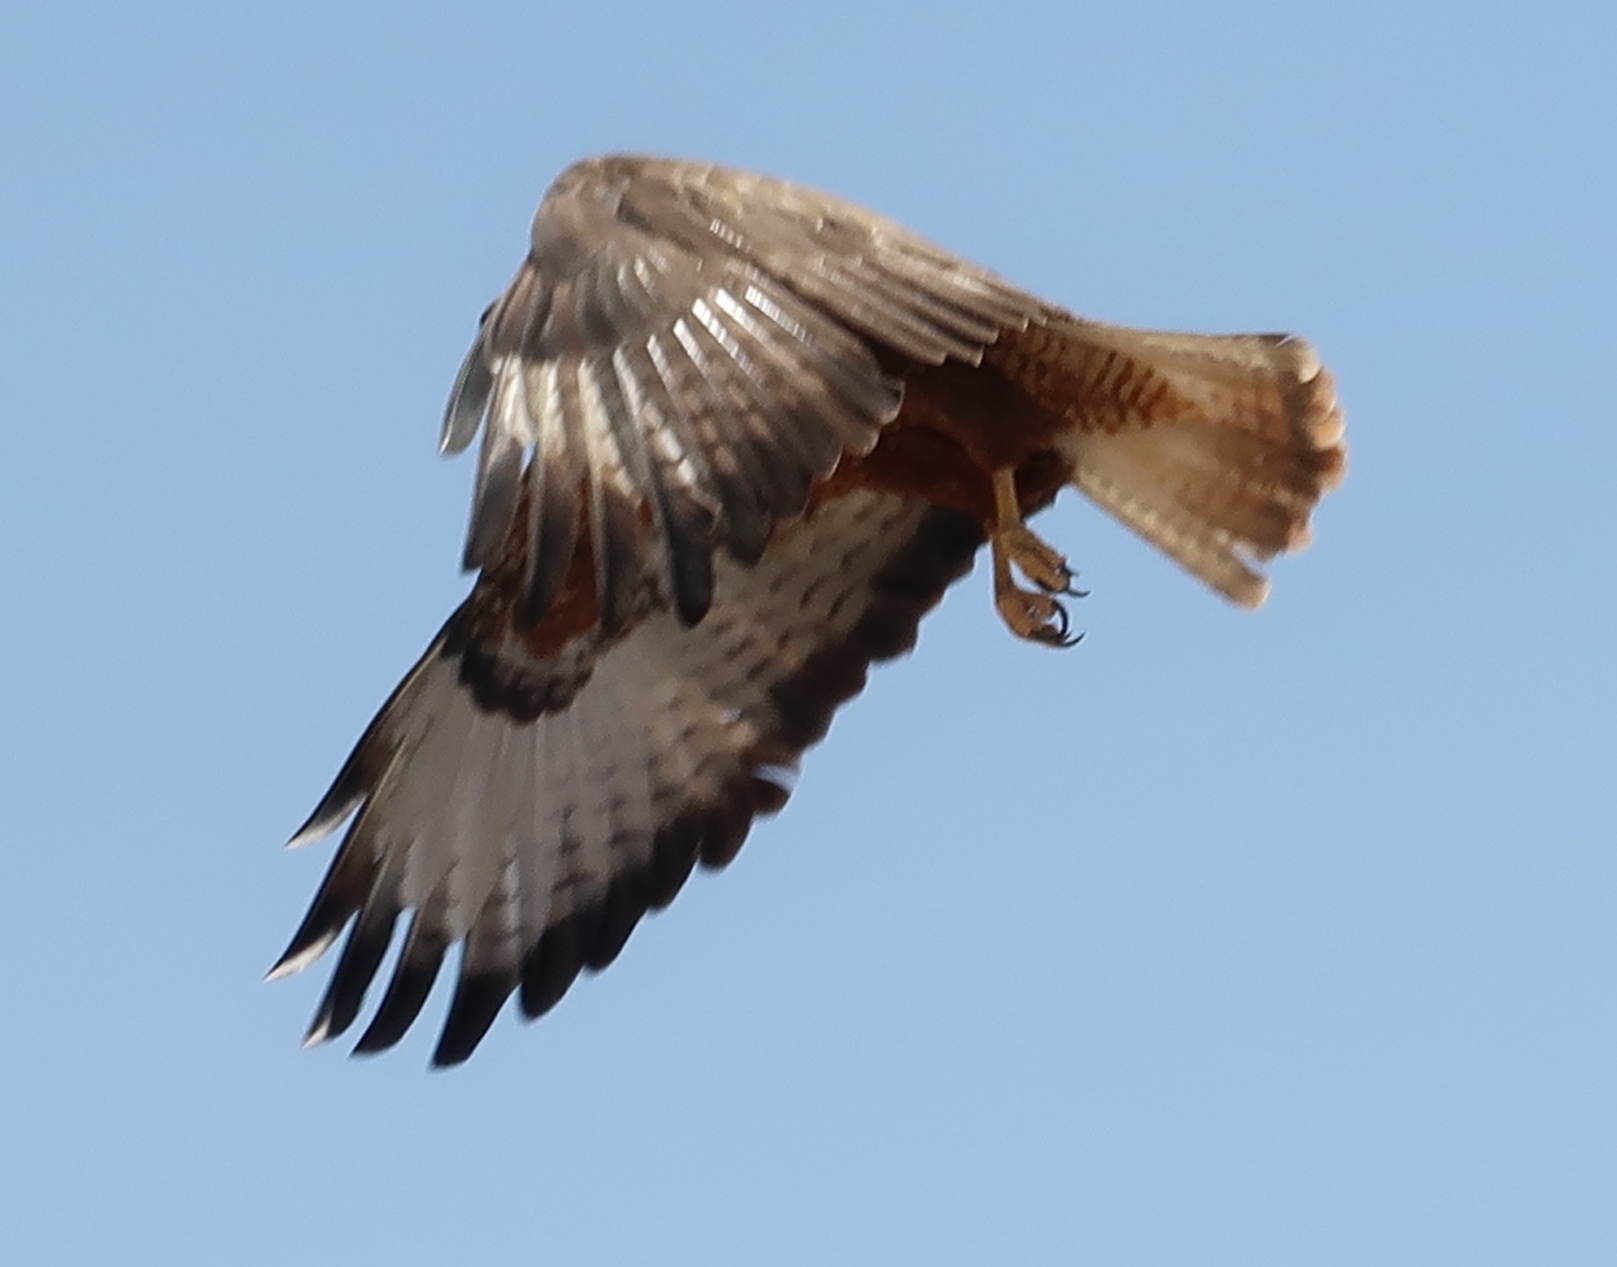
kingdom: Animalia
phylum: Chordata
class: Aves
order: Accipitriformes
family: Accipitridae
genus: Buteo
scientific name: Buteo buteo
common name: Common buzzard
